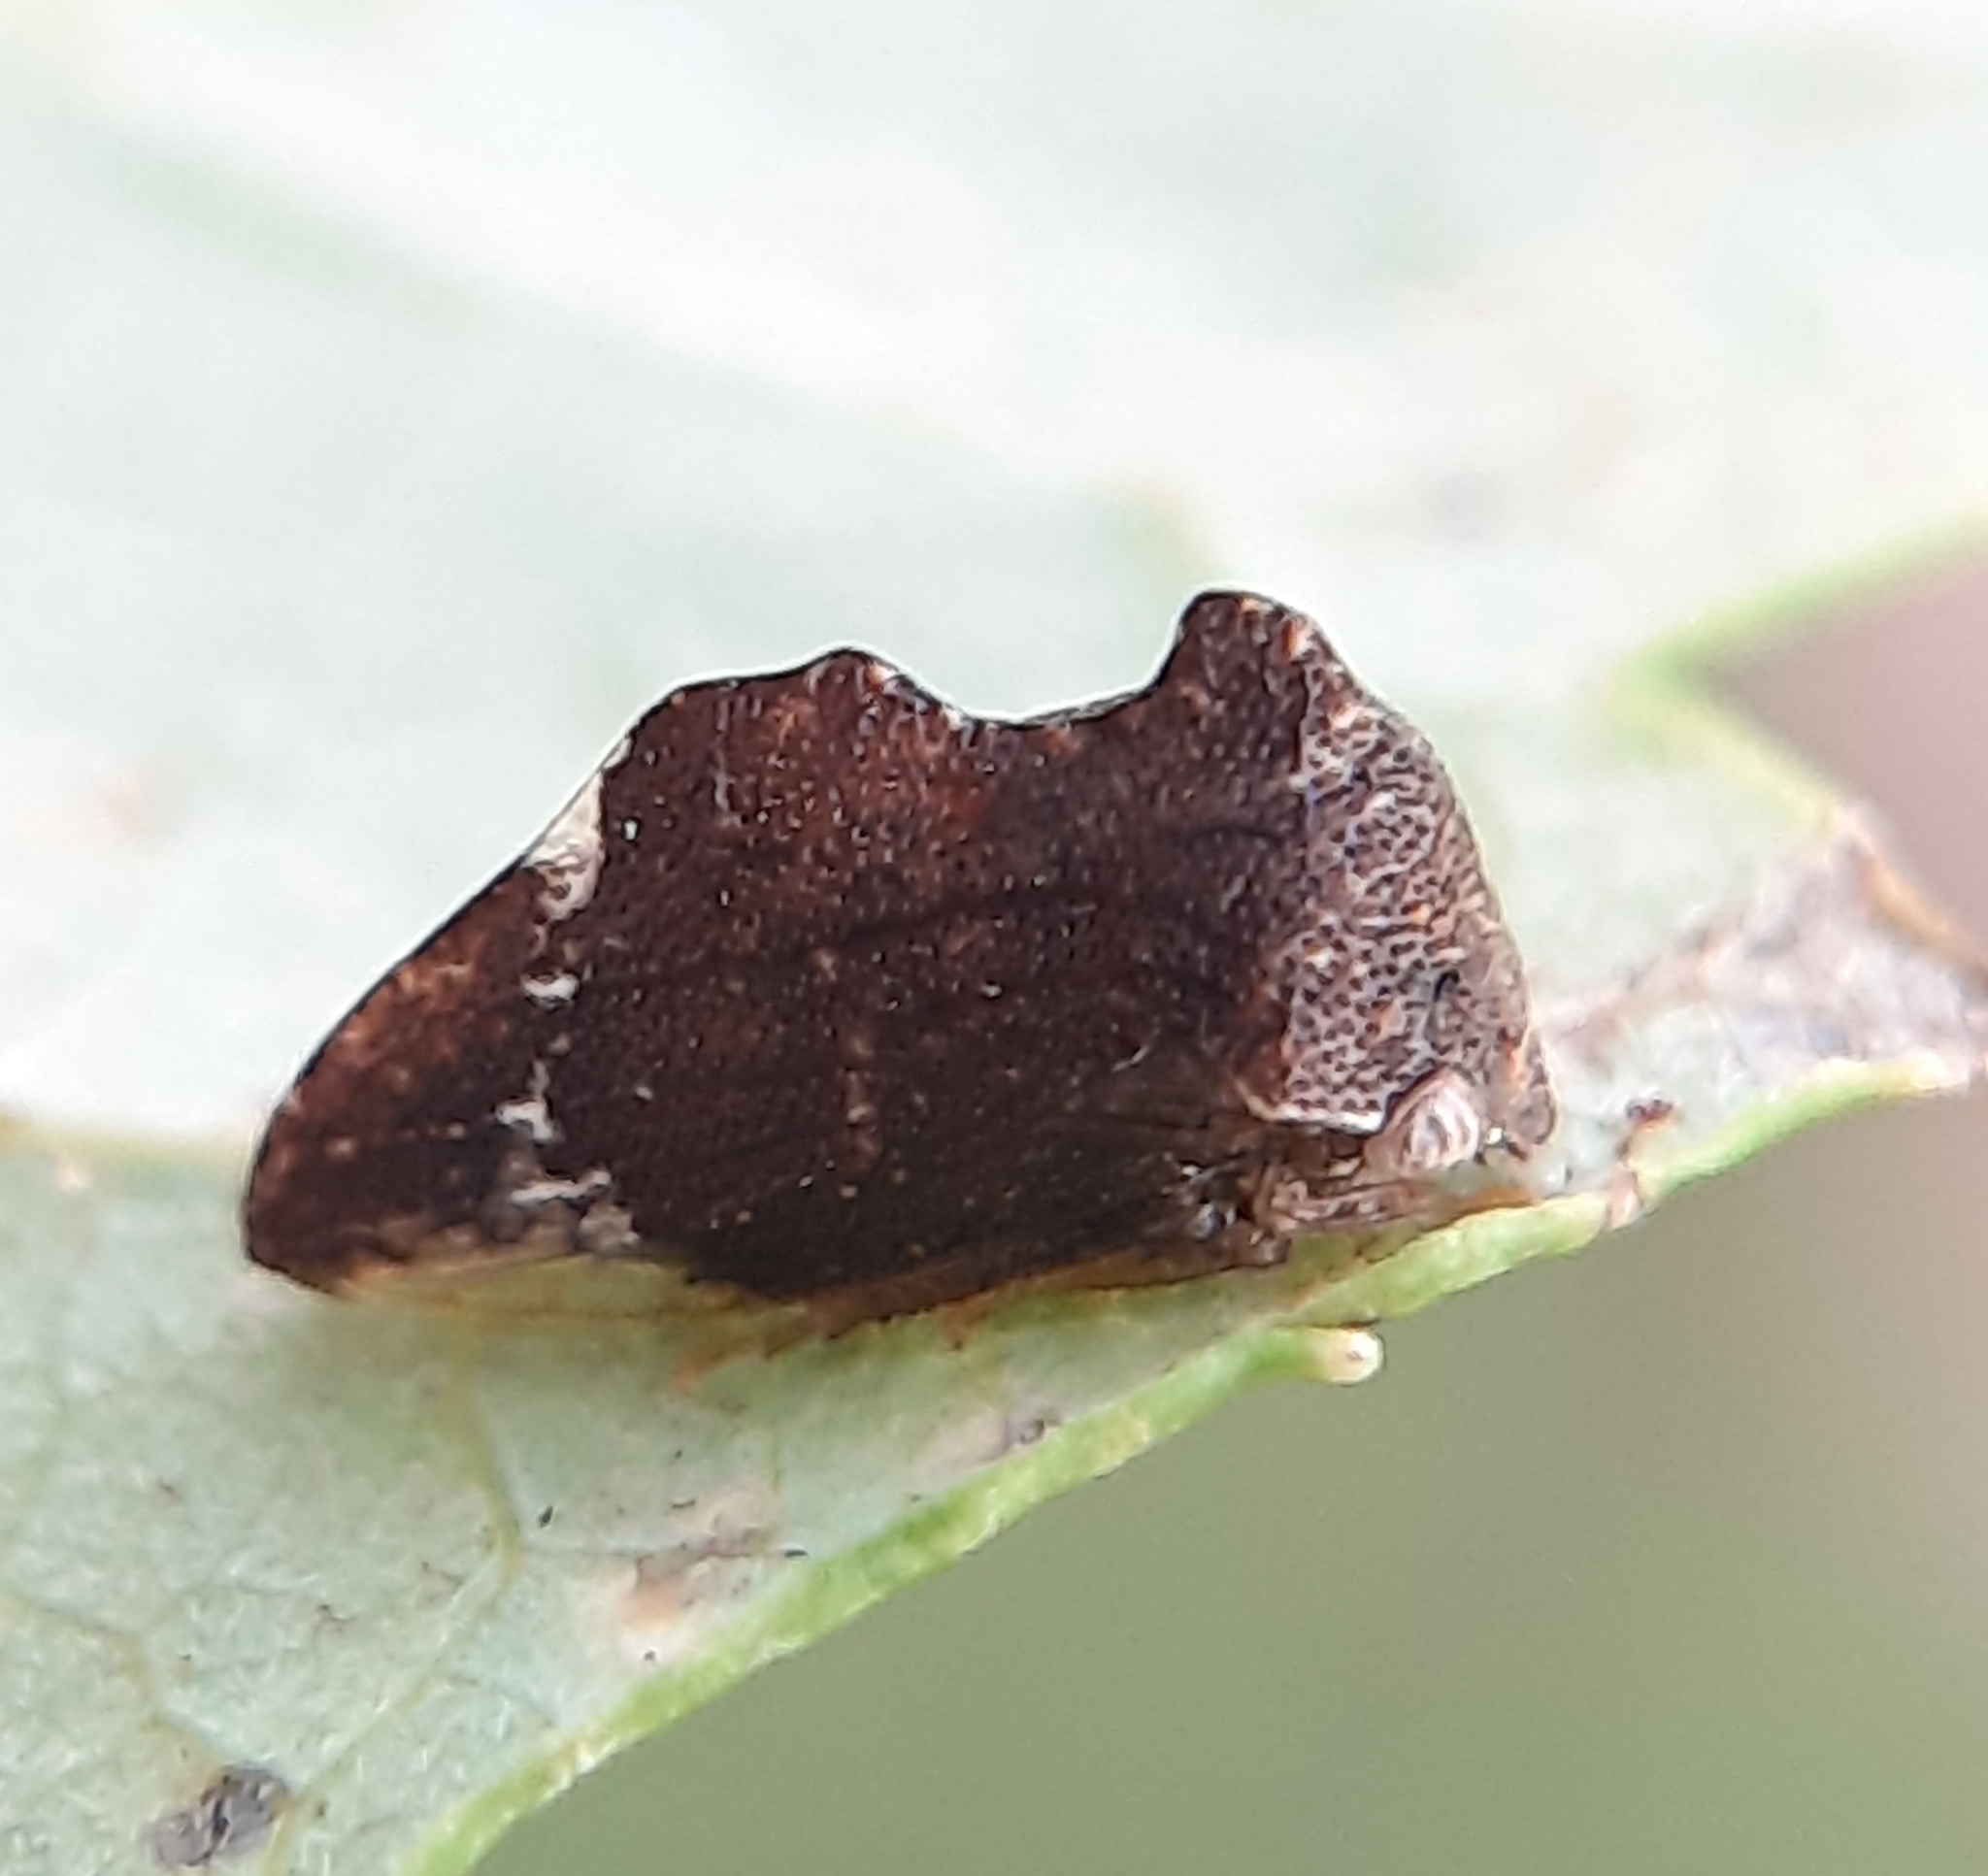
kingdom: Animalia
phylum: Arthropoda
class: Insecta
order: Hemiptera
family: Membracidae
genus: Entylia
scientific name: Entylia carinata
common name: Keeled treehopper
